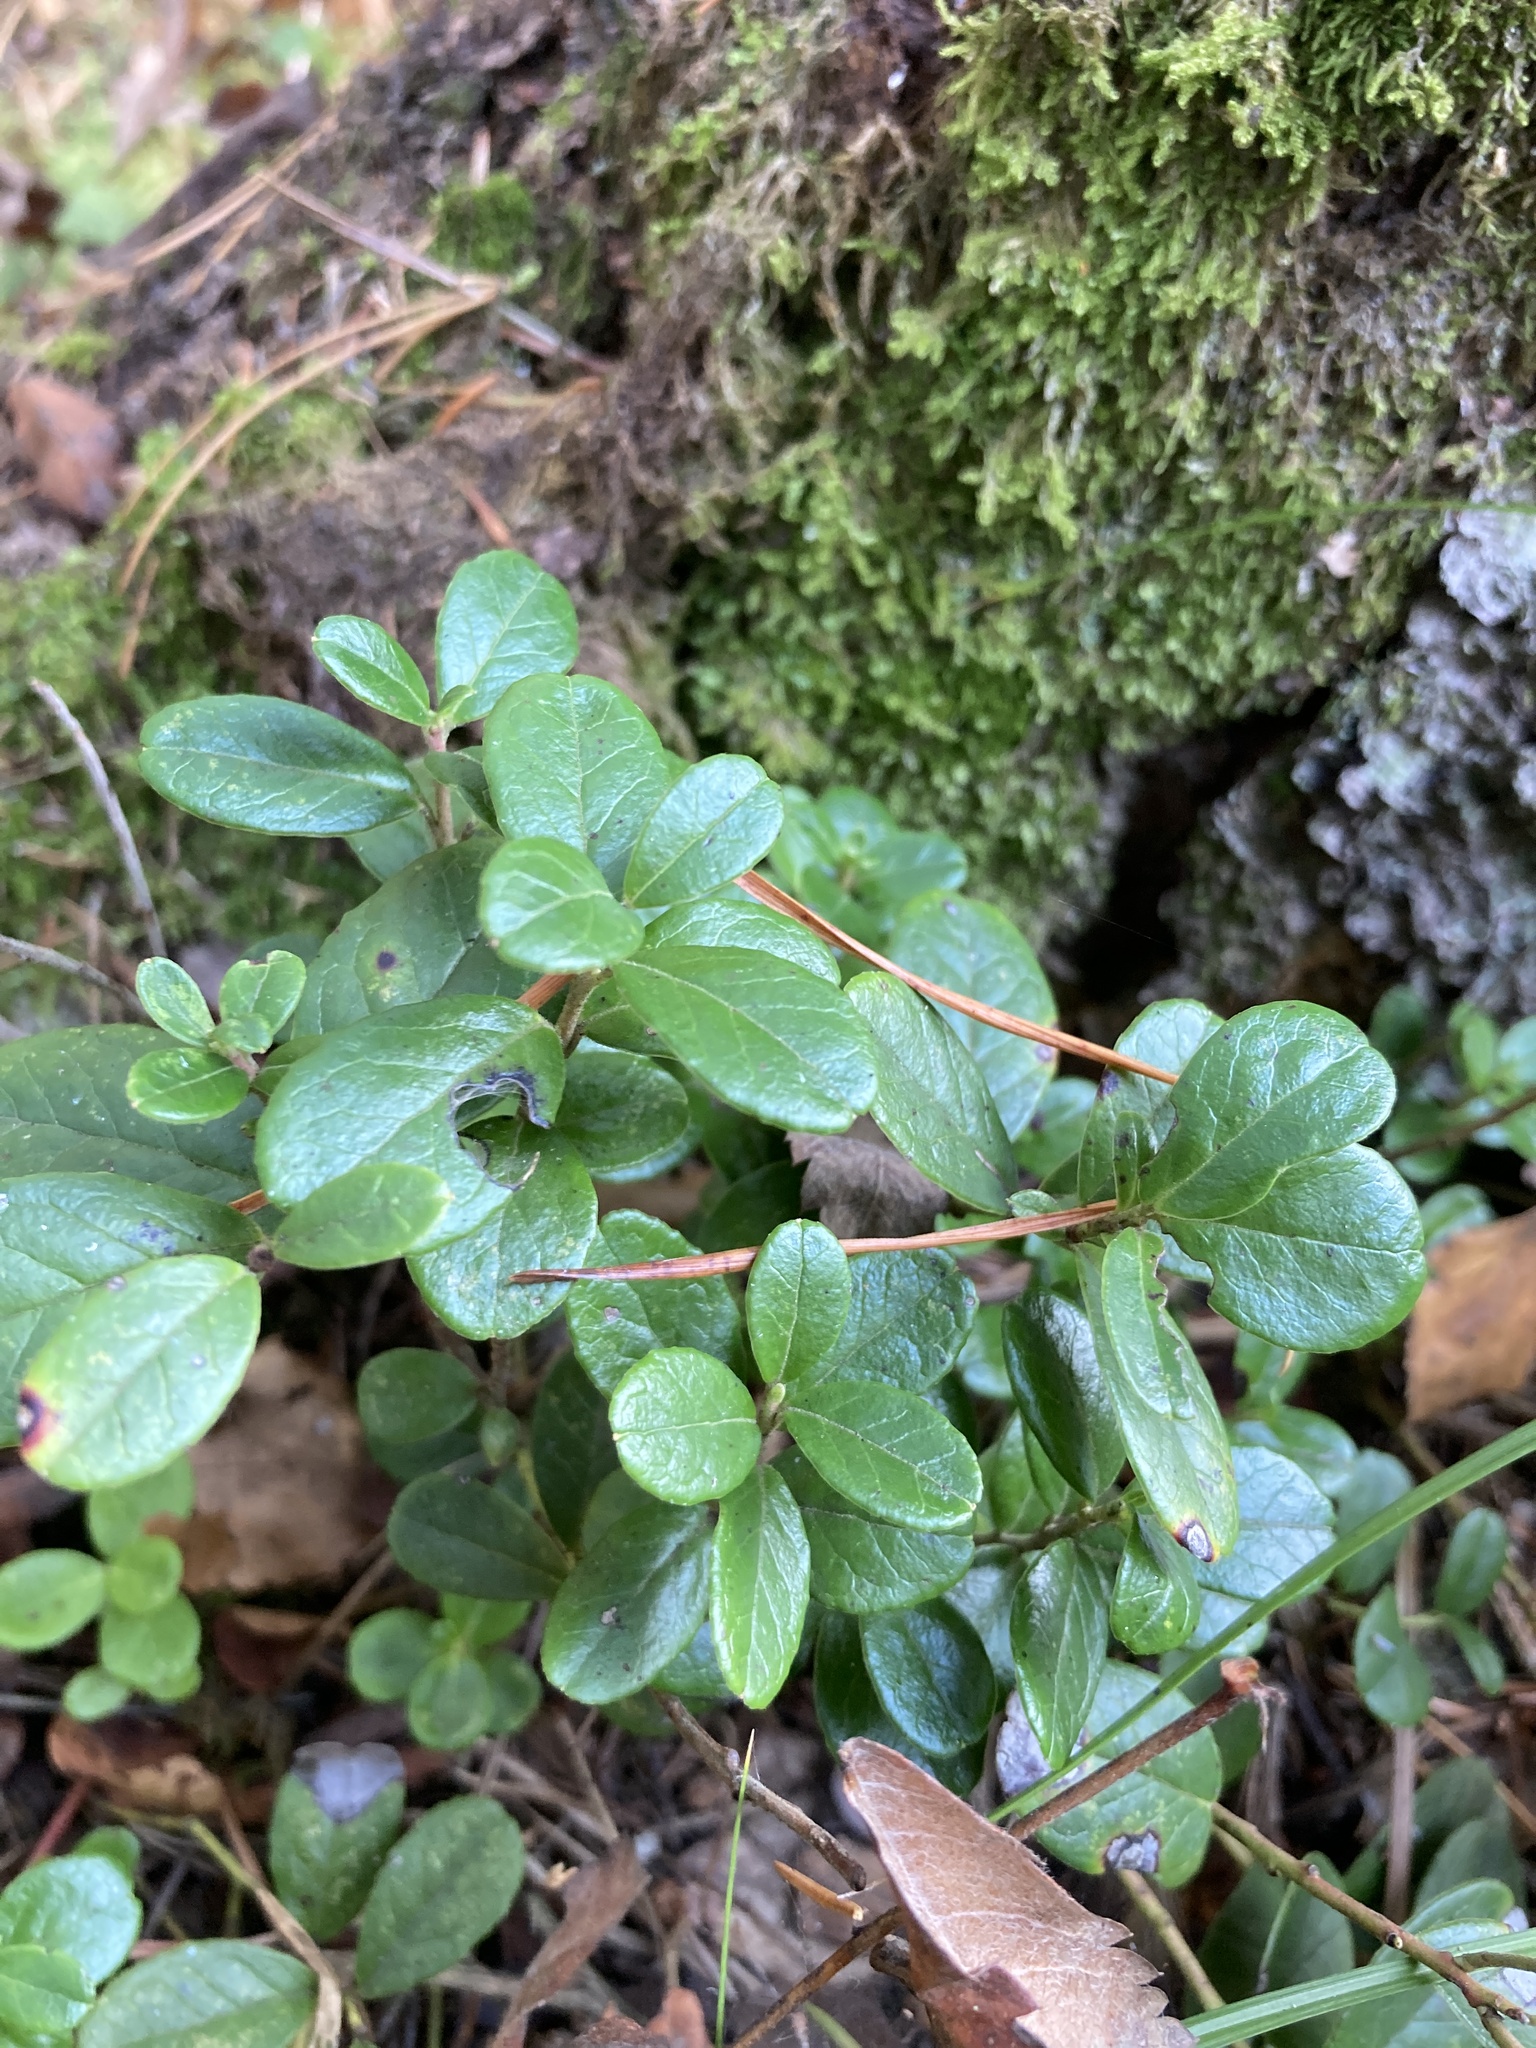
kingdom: Plantae
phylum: Tracheophyta
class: Magnoliopsida
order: Ericales
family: Ericaceae
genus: Vaccinium
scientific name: Vaccinium vitis-idaea
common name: Cowberry
